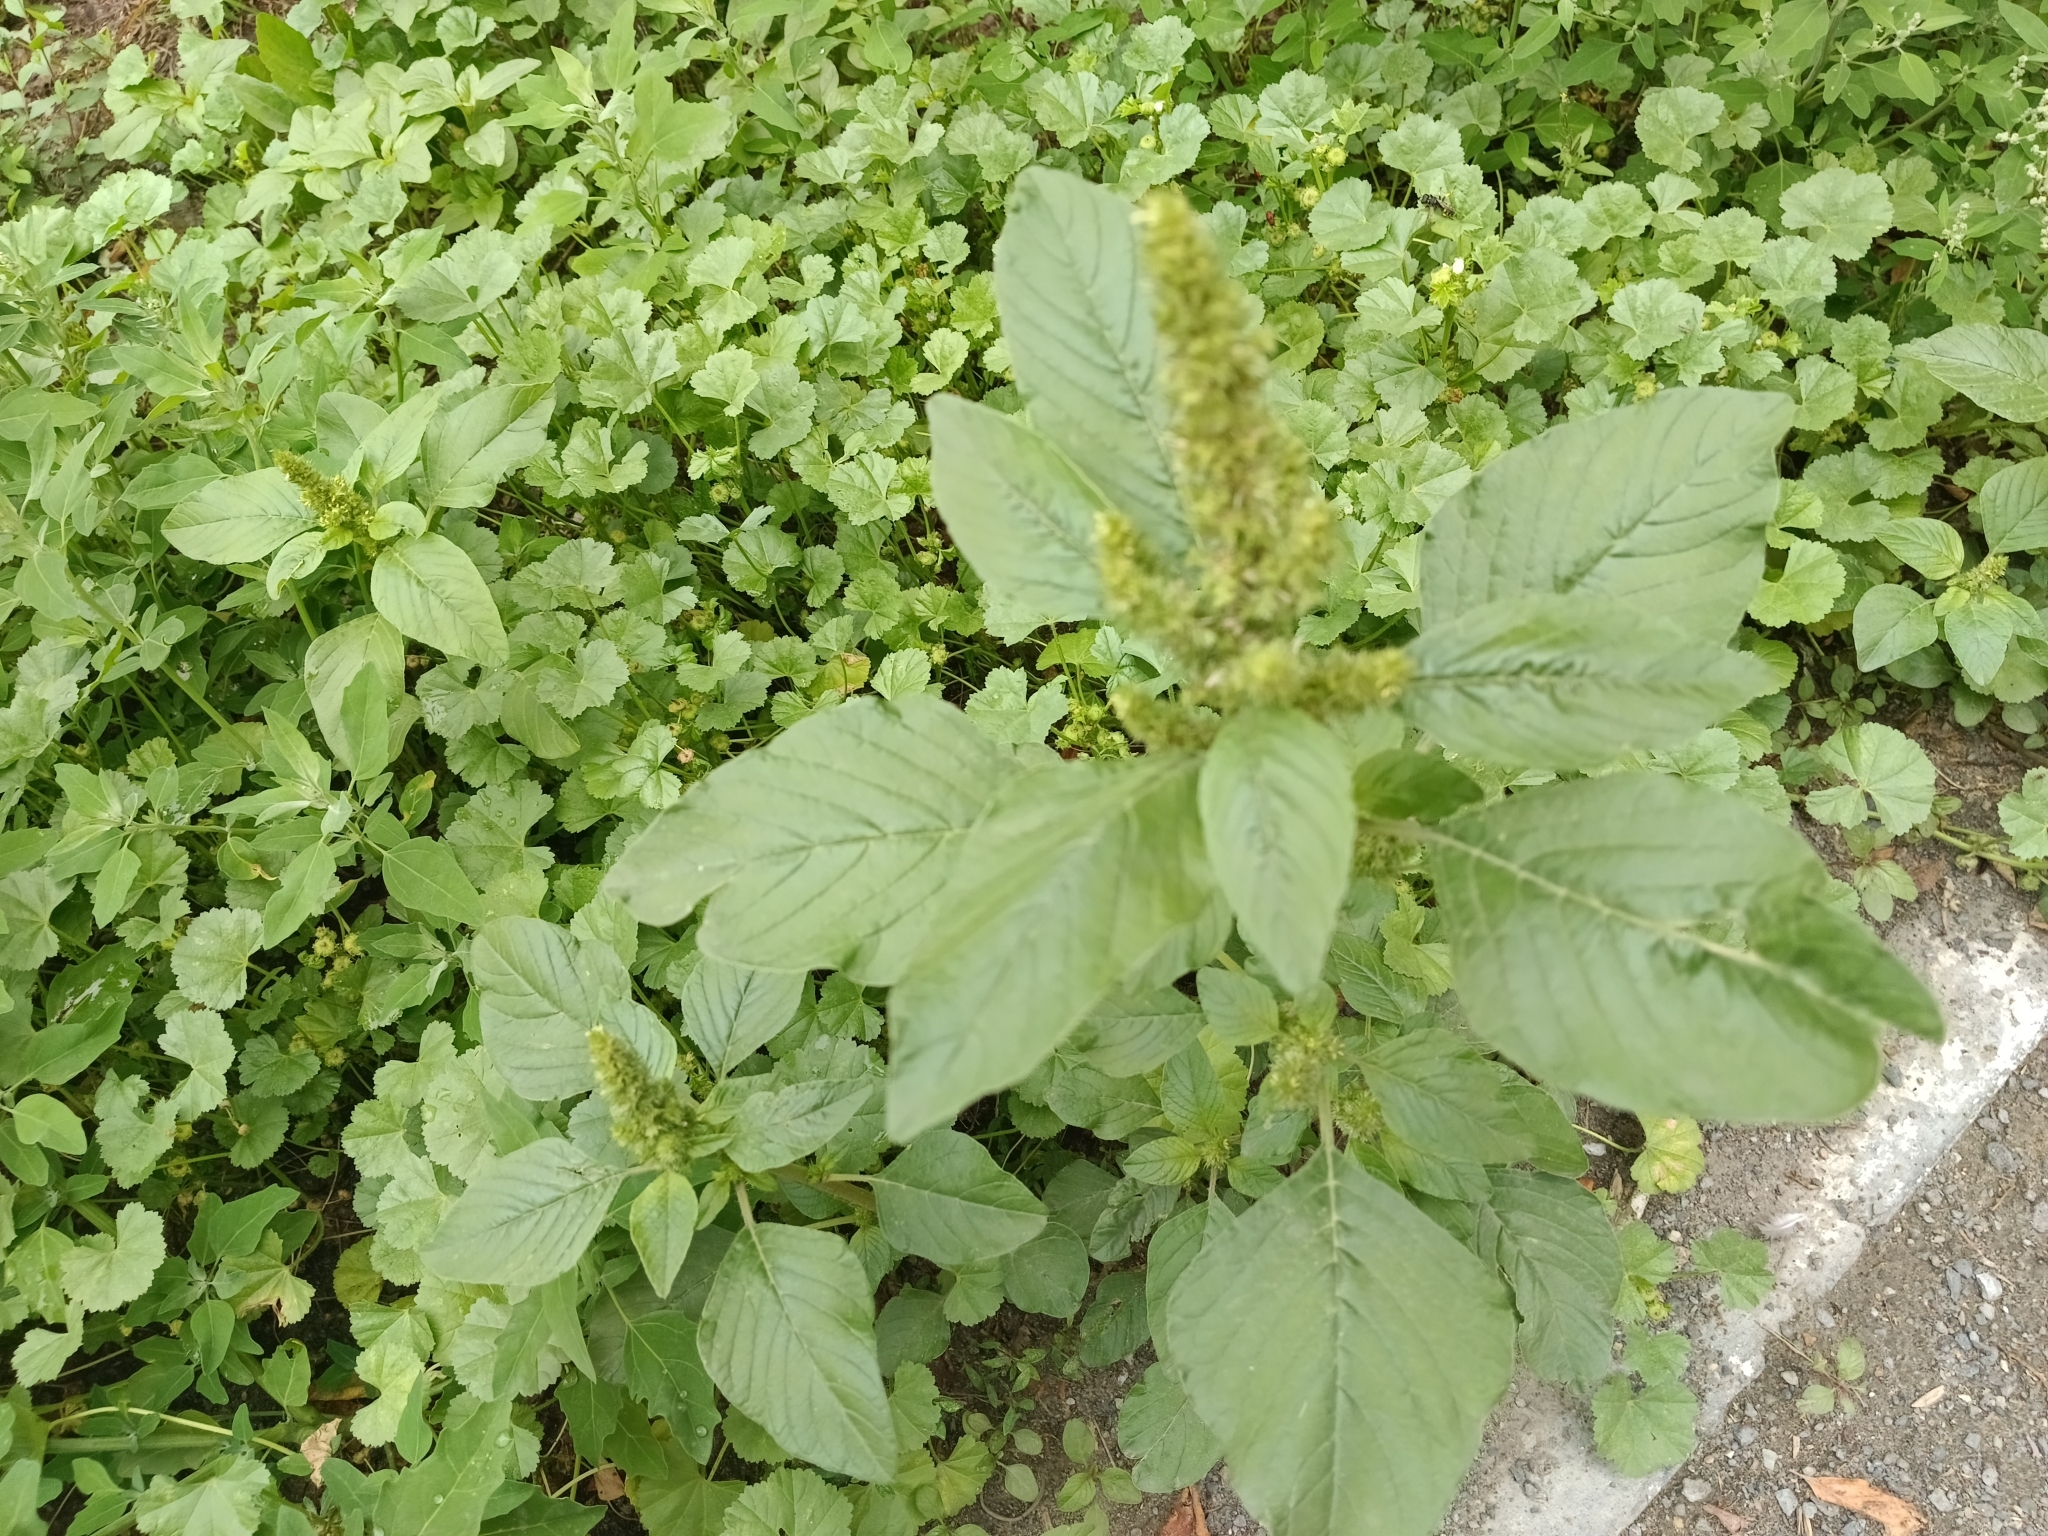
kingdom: Plantae
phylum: Tracheophyta
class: Magnoliopsida
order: Caryophyllales
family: Amaranthaceae
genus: Amaranthus
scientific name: Amaranthus retroflexus
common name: Redroot amaranth
